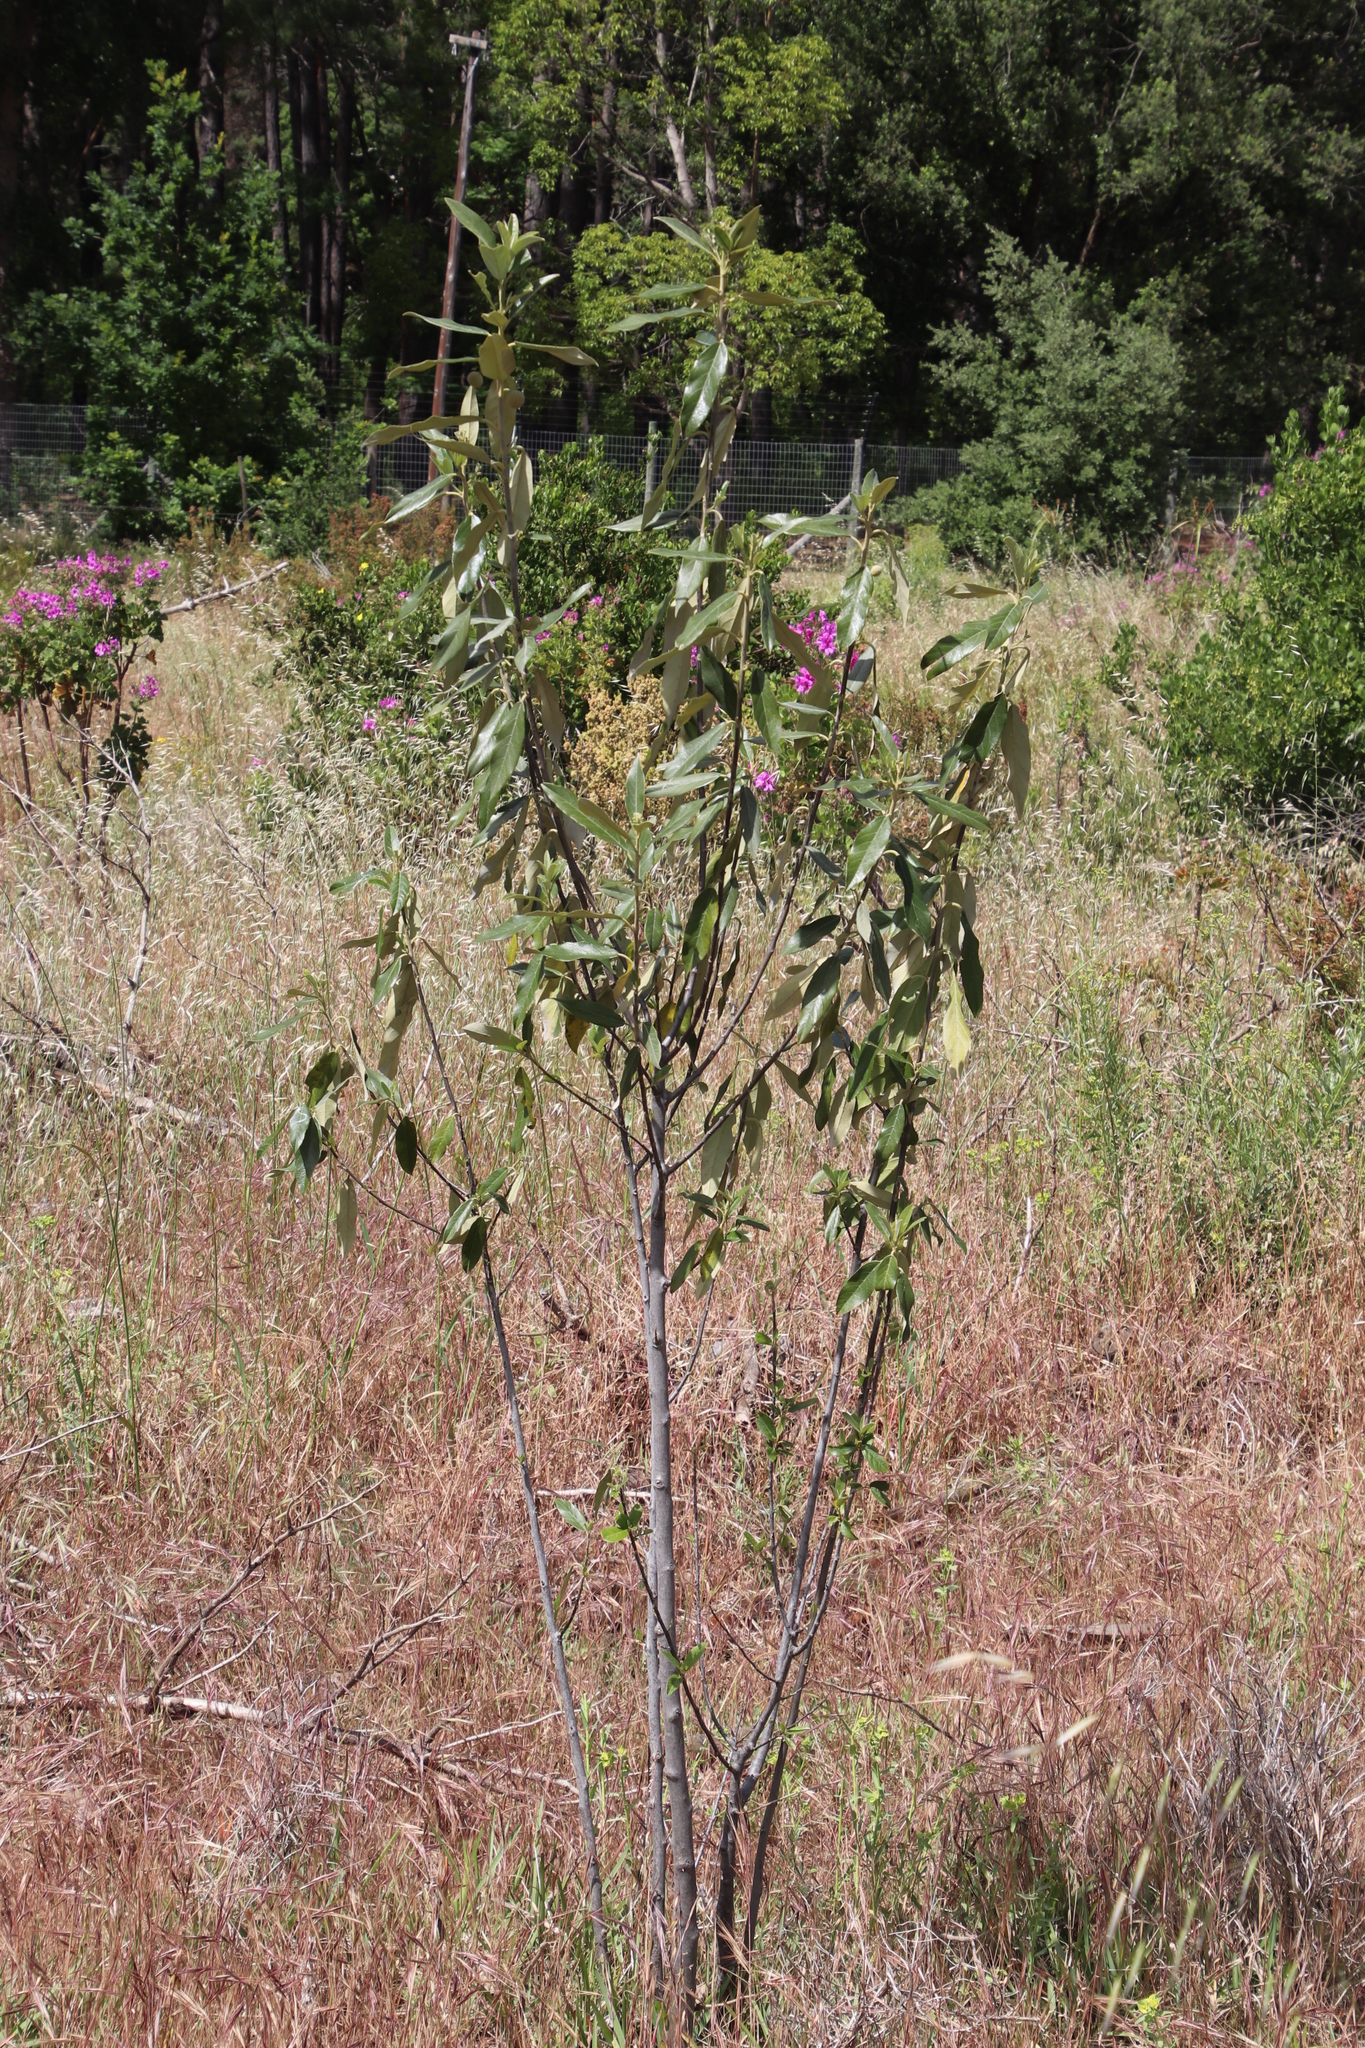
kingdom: Plantae
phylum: Tracheophyta
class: Magnoliopsida
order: Malpighiales
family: Achariaceae
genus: Kiggelaria
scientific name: Kiggelaria africana
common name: Wild peach
